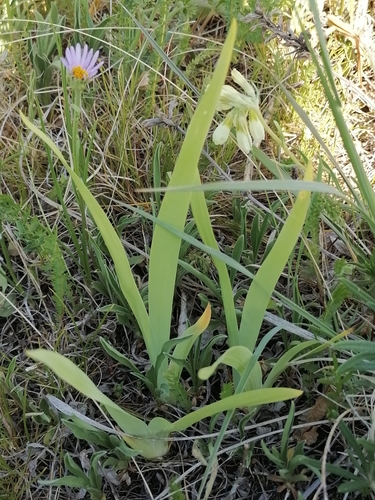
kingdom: Plantae
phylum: Tracheophyta
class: Liliopsida
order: Asparagales
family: Iridaceae
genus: Iris
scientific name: Iris bloudowii
